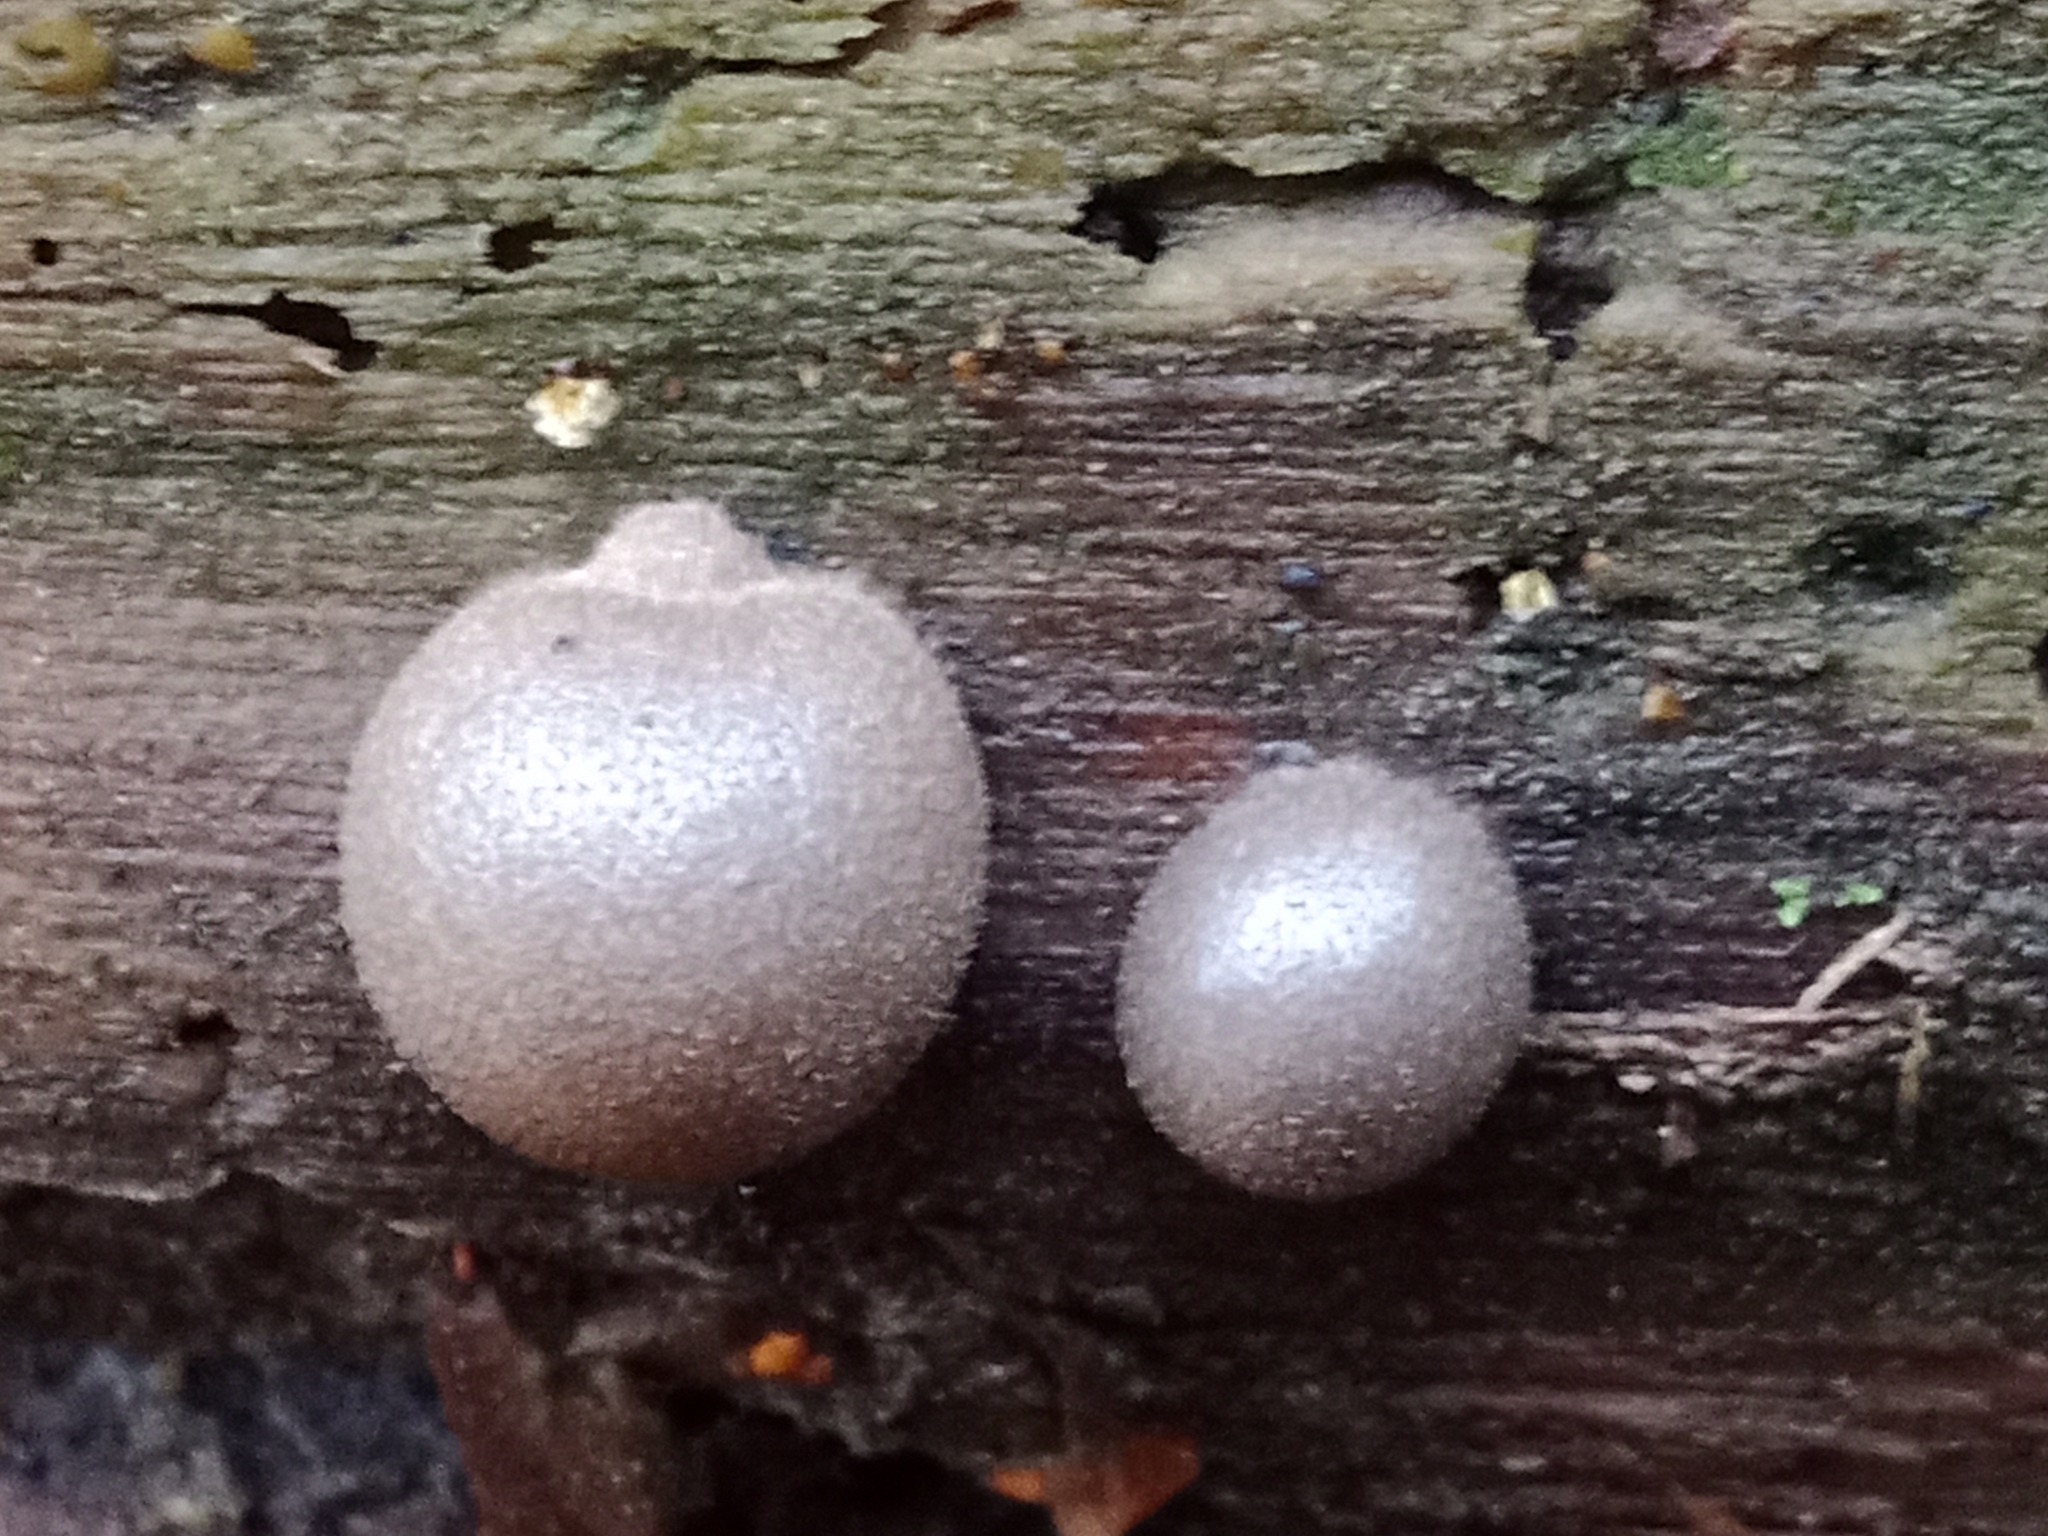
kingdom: Protozoa
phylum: Mycetozoa
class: Myxomycetes
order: Cribrariales
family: Tubiferaceae
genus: Lycogala
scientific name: Lycogala epidendrum
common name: Wolf's milk
